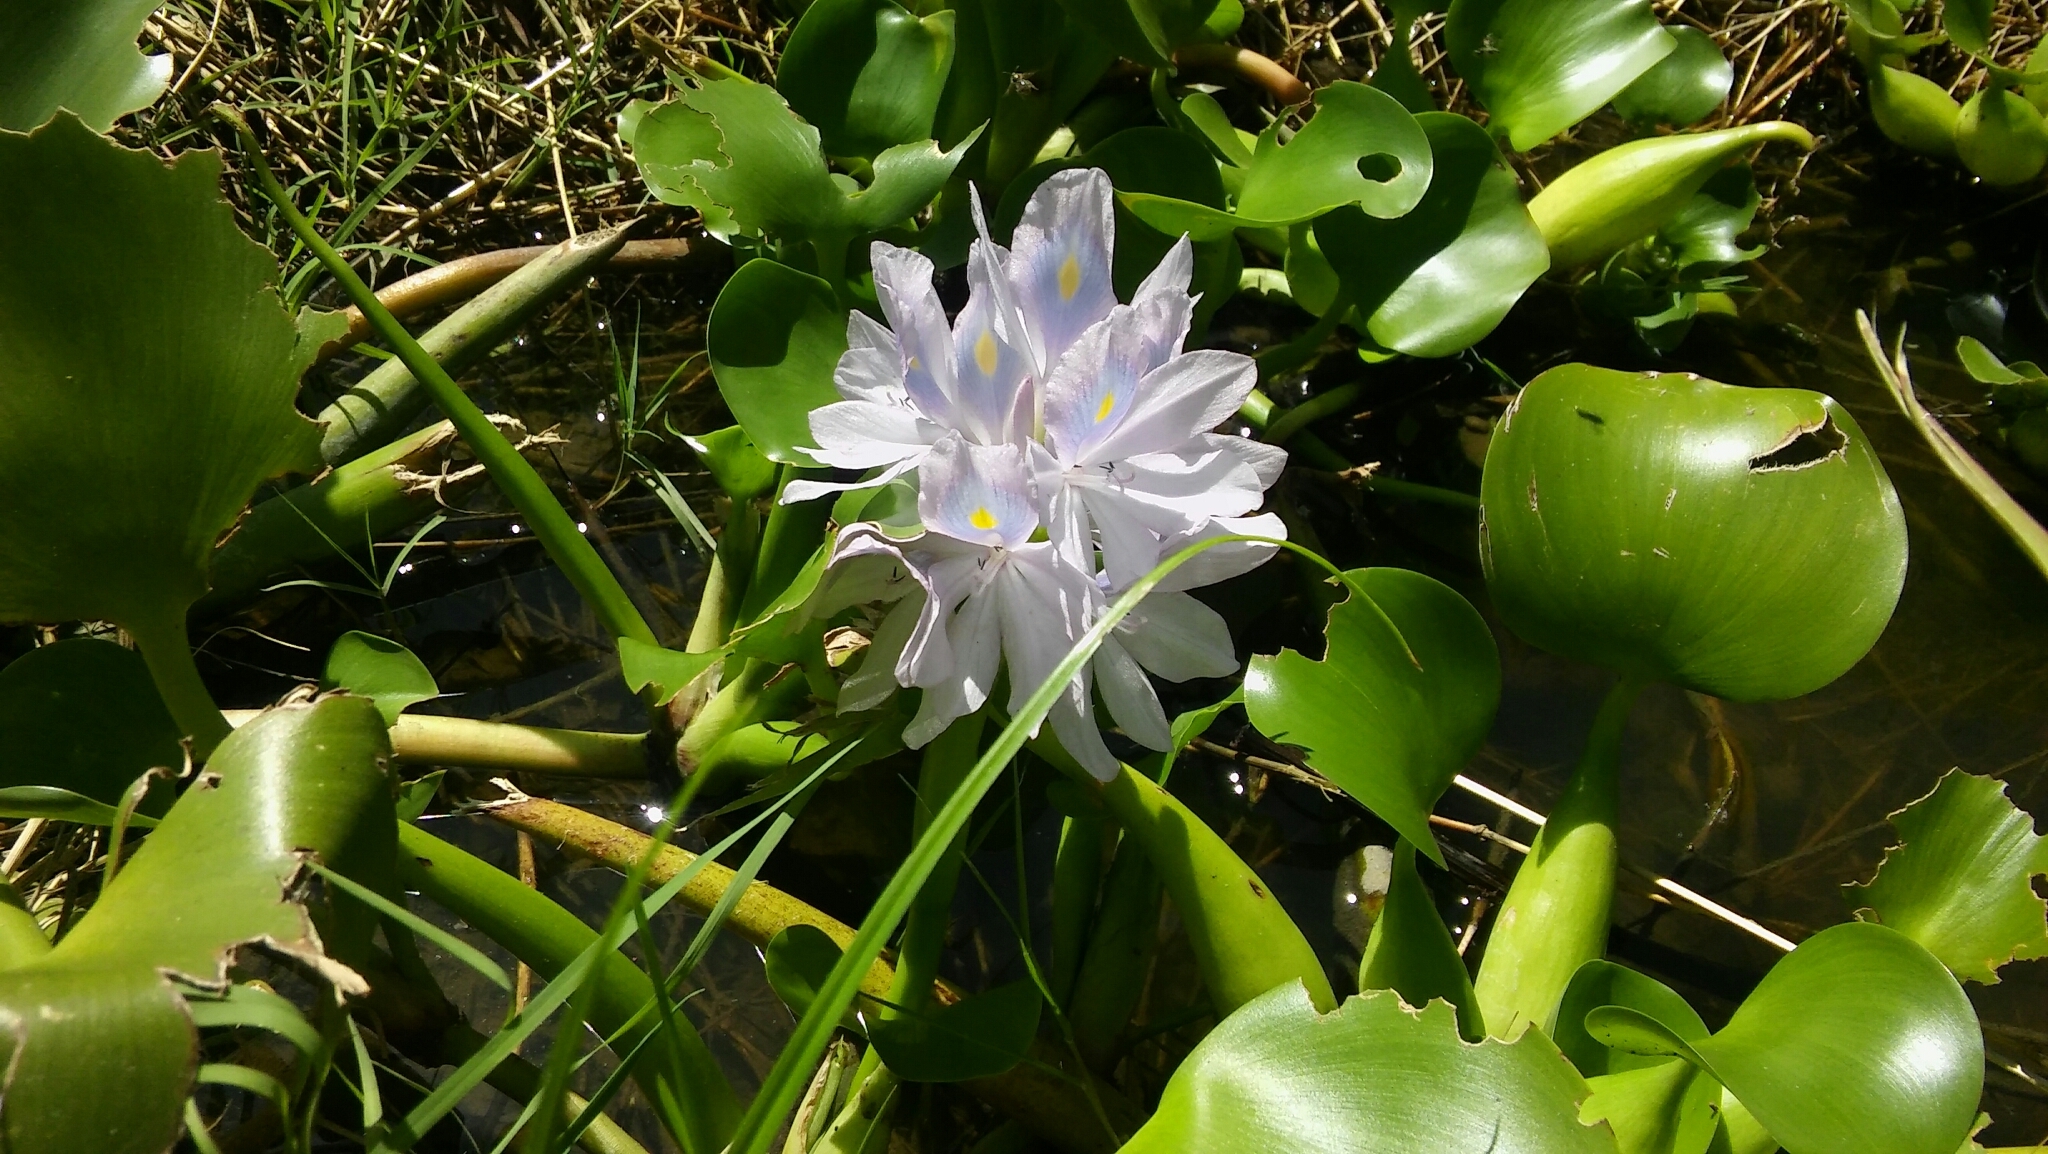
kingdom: Plantae
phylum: Tracheophyta
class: Liliopsida
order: Commelinales
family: Pontederiaceae
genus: Pontederia
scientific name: Pontederia crassipes
